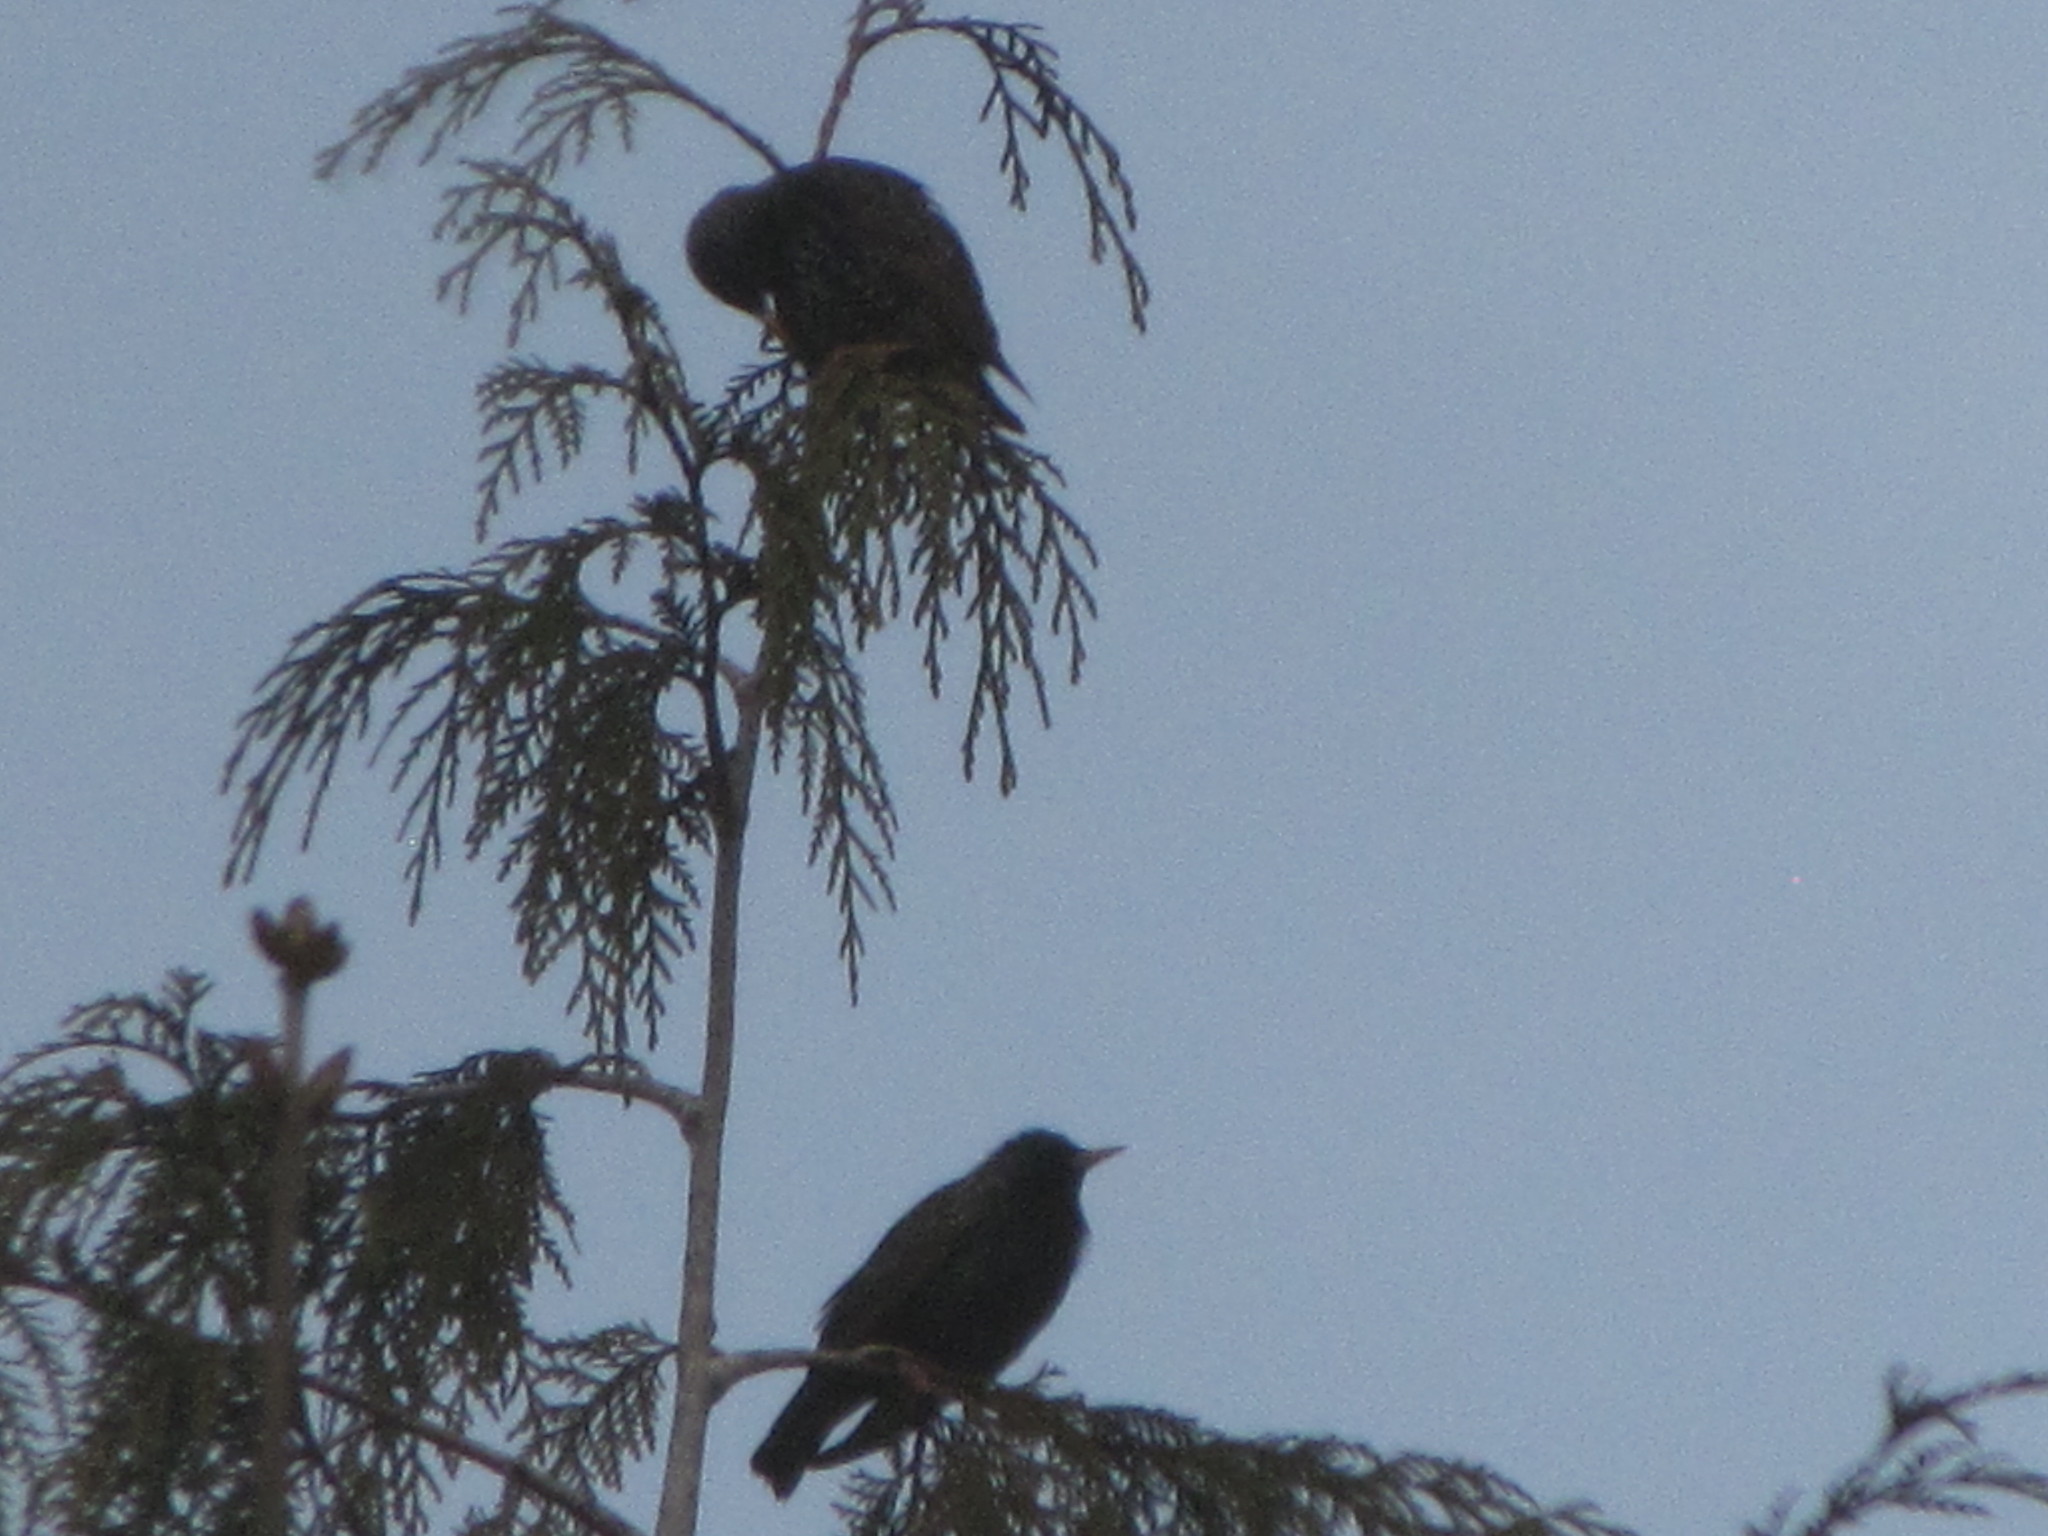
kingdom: Animalia
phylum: Chordata
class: Aves
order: Passeriformes
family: Sturnidae
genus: Sturnus
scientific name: Sturnus vulgaris
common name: Common starling
